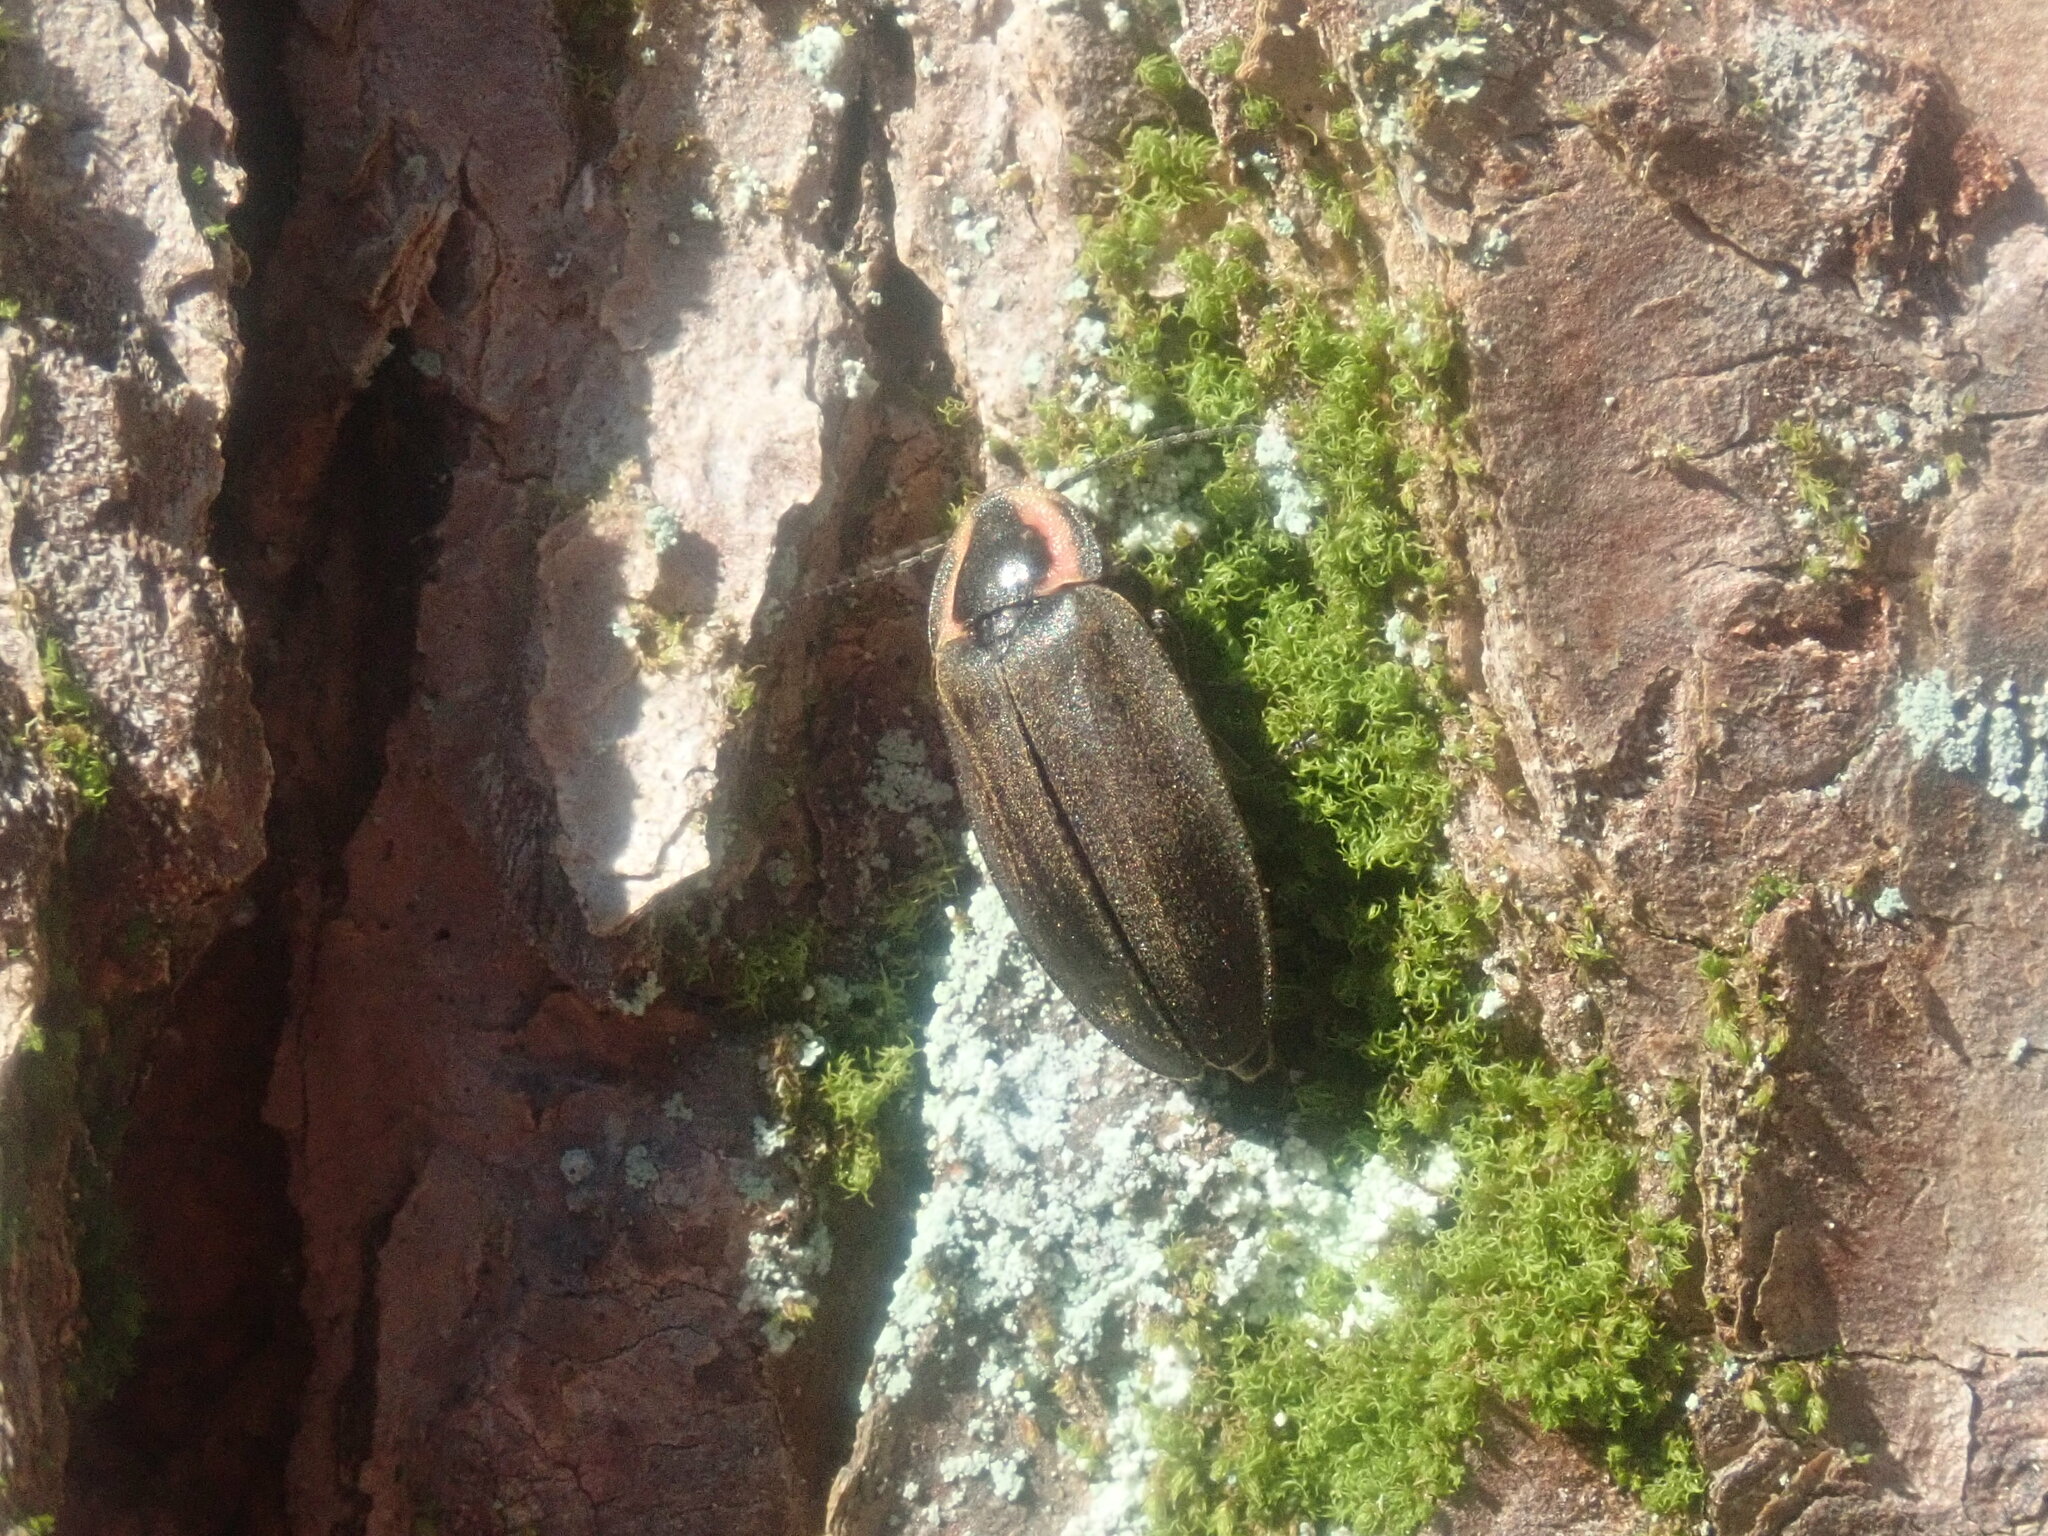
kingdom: Animalia
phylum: Arthropoda
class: Insecta
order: Coleoptera
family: Lampyridae
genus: Photinus
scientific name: Photinus corrusca
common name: Winter firefly
